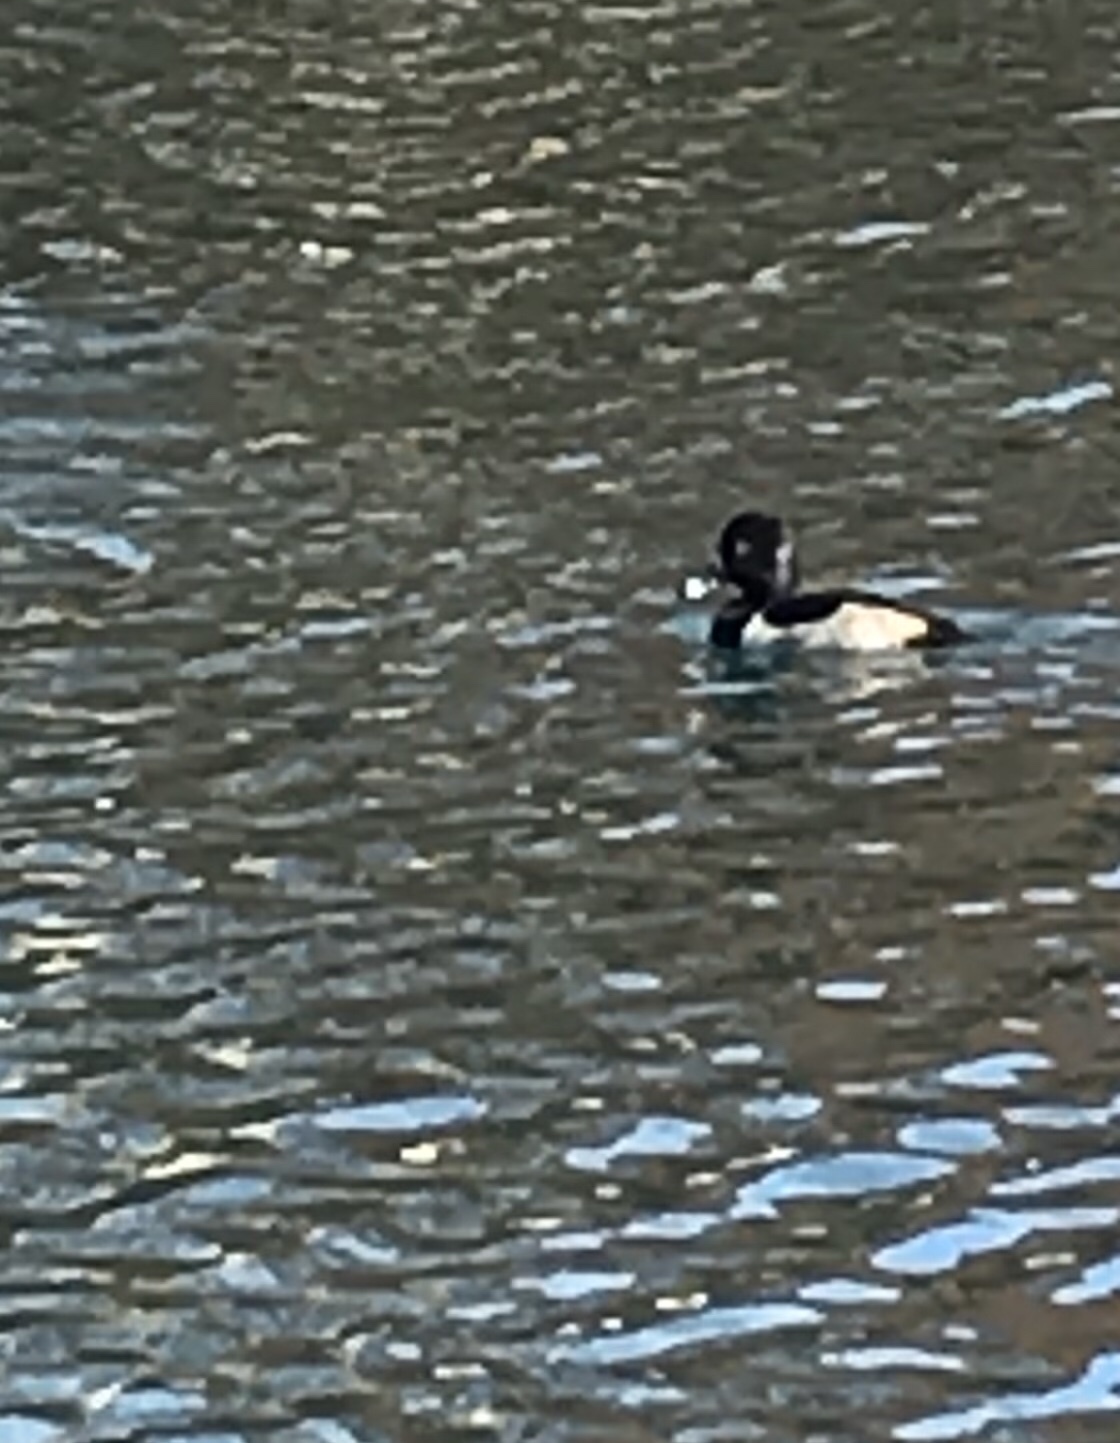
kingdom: Animalia
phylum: Chordata
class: Aves
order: Anseriformes
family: Anatidae
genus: Aythya
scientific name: Aythya collaris
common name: Ring-necked duck
